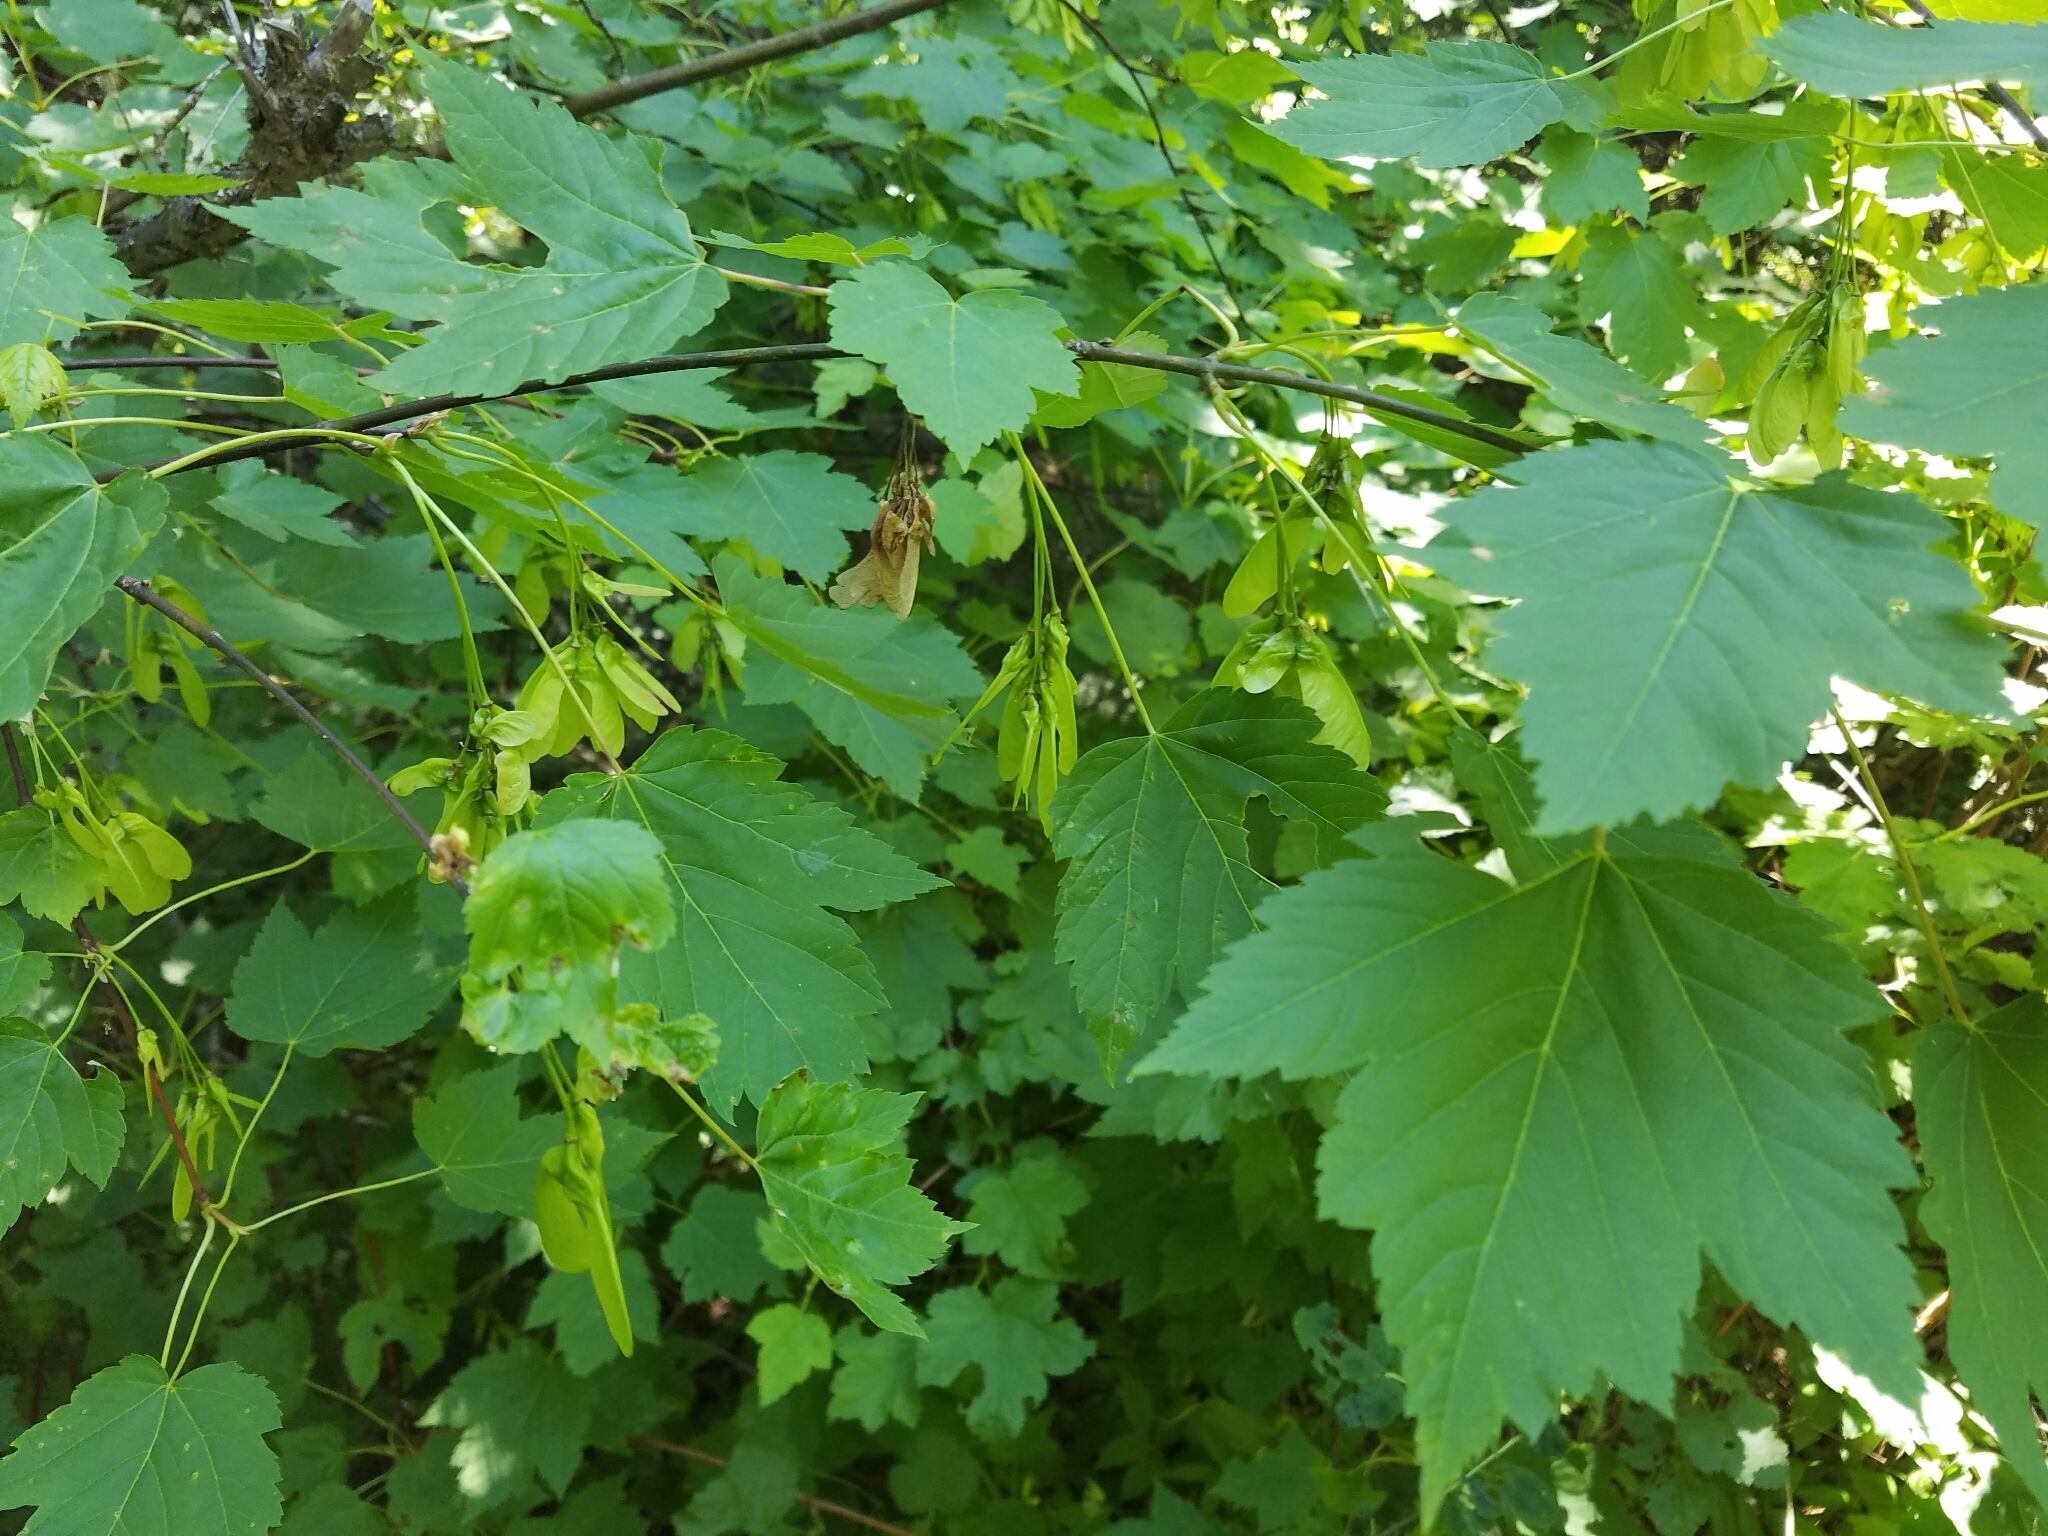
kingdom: Plantae
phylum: Tracheophyta
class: Magnoliopsida
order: Sapindales
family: Sapindaceae
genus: Acer
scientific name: Acer glabrum
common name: Rocky mountain maple
